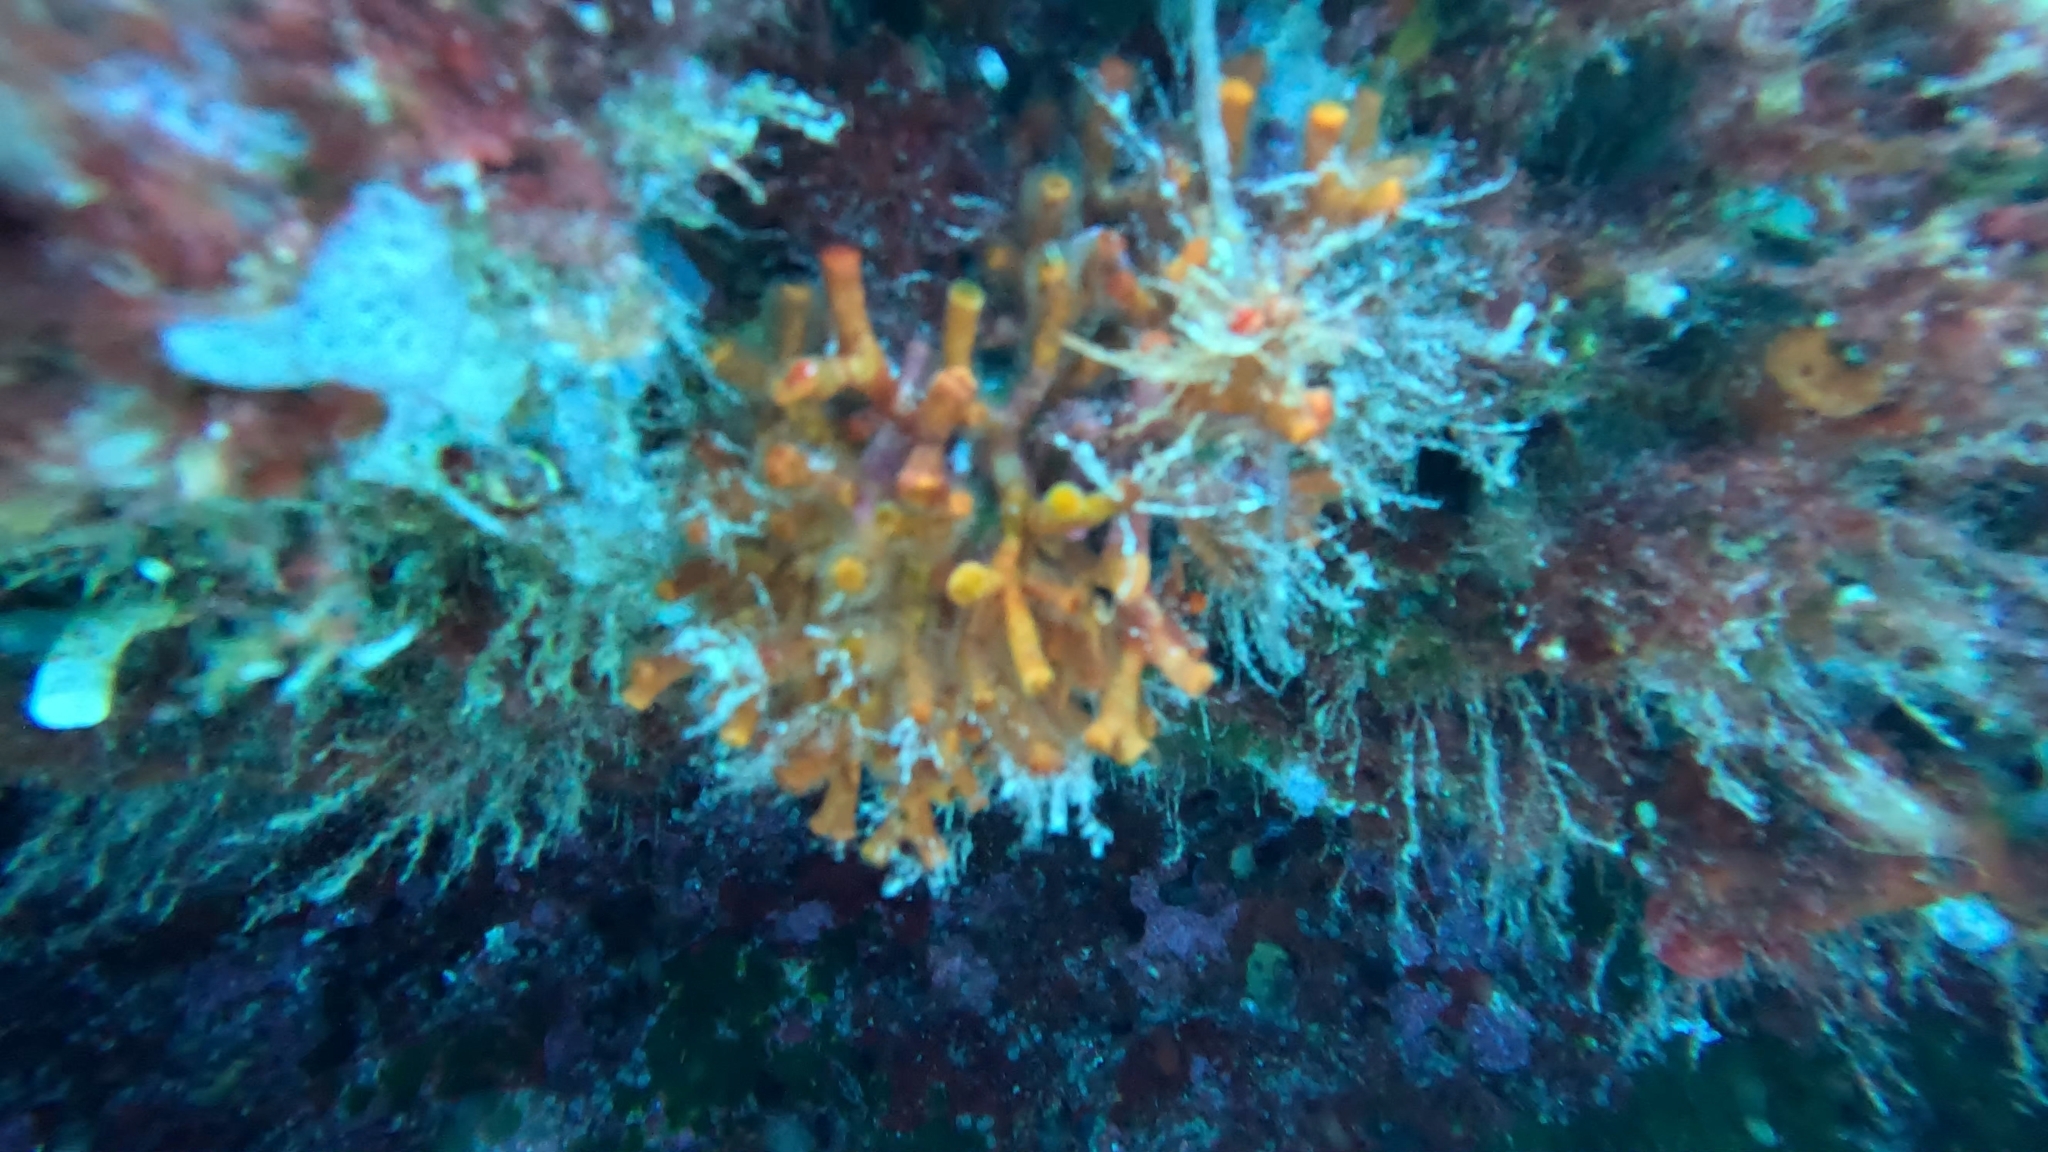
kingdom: Animalia
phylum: Bryozoa
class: Gymnolaemata
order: Cheilostomatida
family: Myriaporidae
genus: Myriapora
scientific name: Myriapora truncata
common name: False coral
